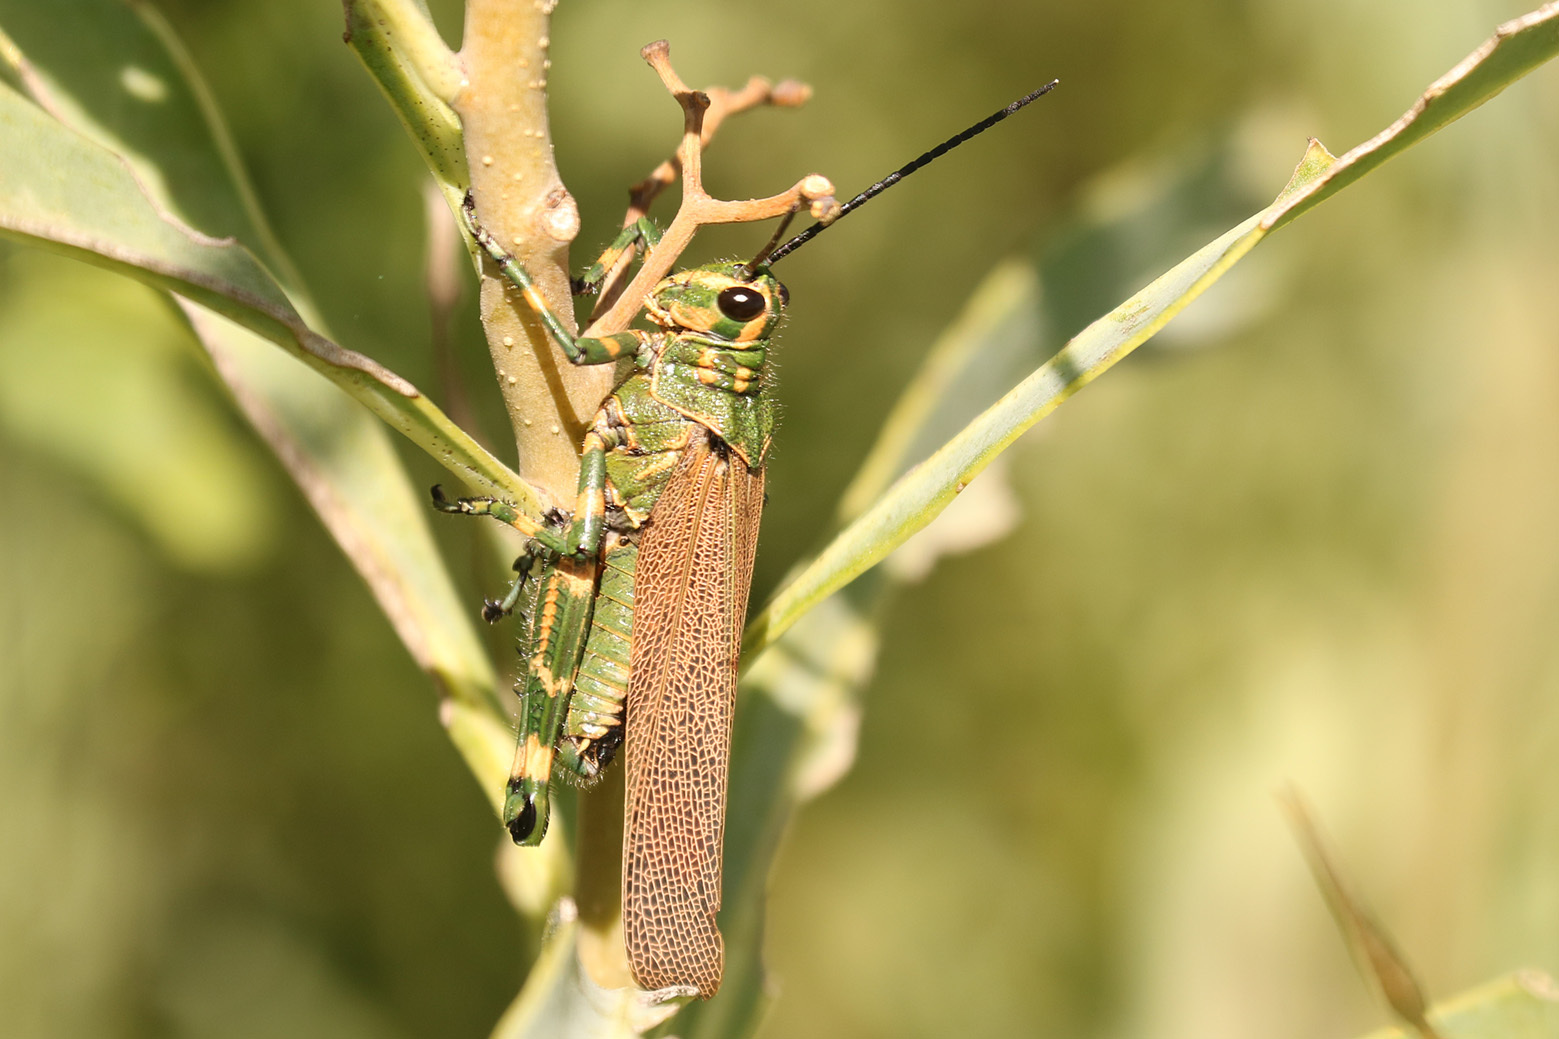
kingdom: Animalia
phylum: Arthropoda
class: Insecta
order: Orthoptera
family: Romaleidae
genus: Chromacris
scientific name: Chromacris speciosa
